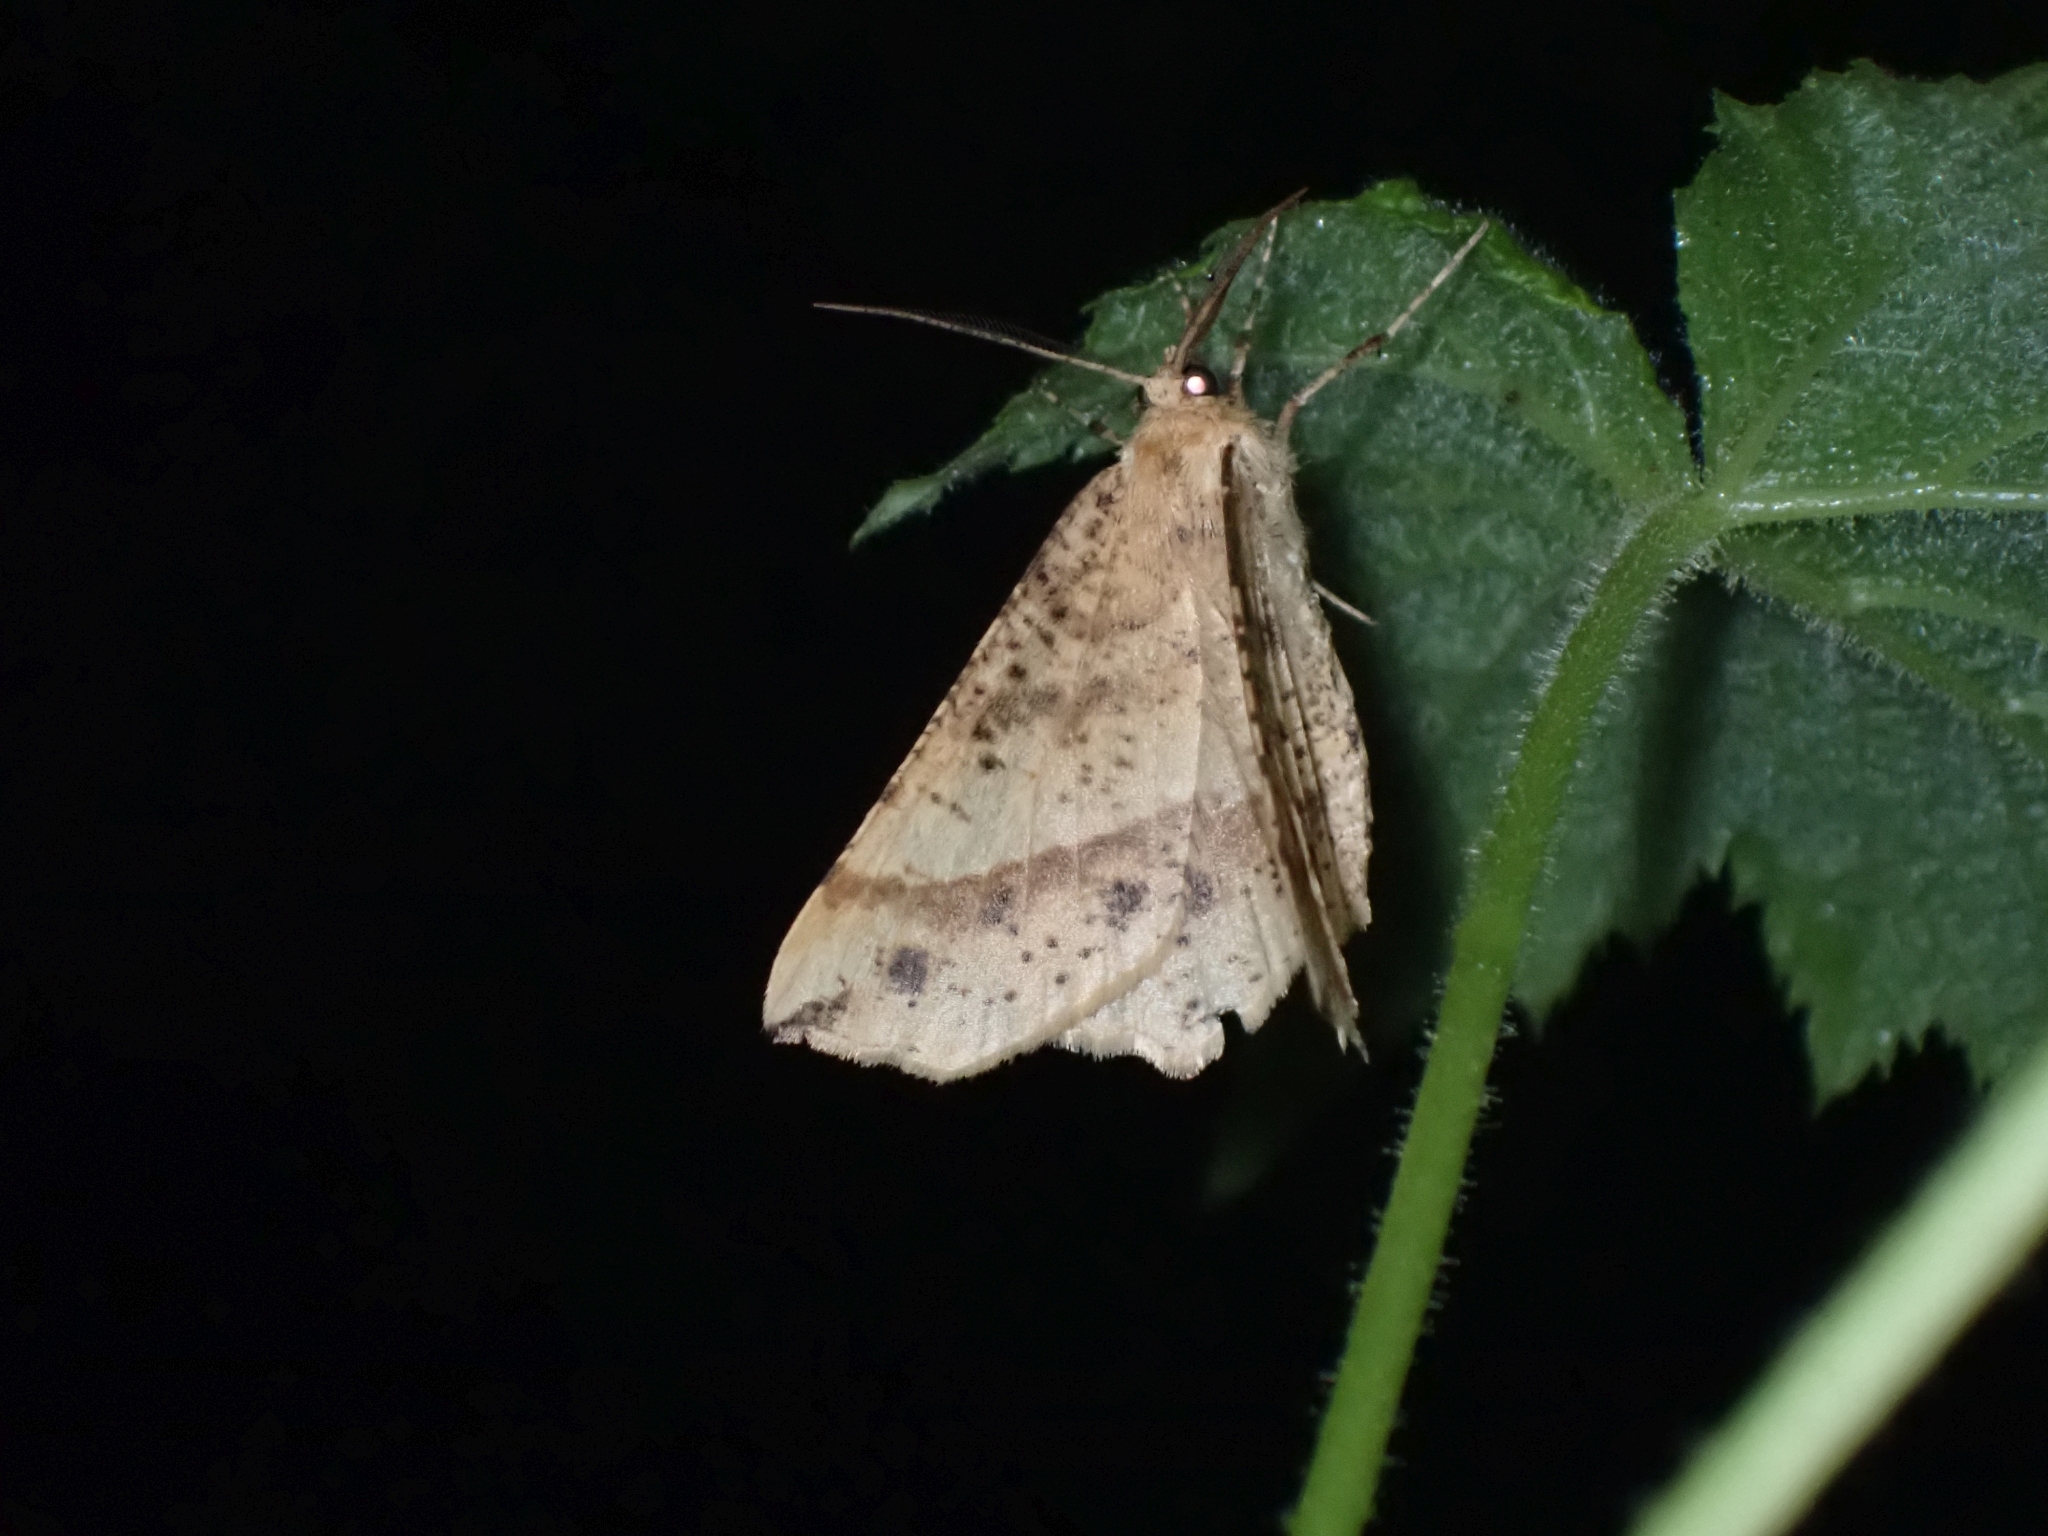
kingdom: Animalia
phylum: Arthropoda
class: Insecta
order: Lepidoptera
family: Geometridae
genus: Euchlaena
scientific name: Euchlaena tigrinaria
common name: Mottled euchlaena moth
